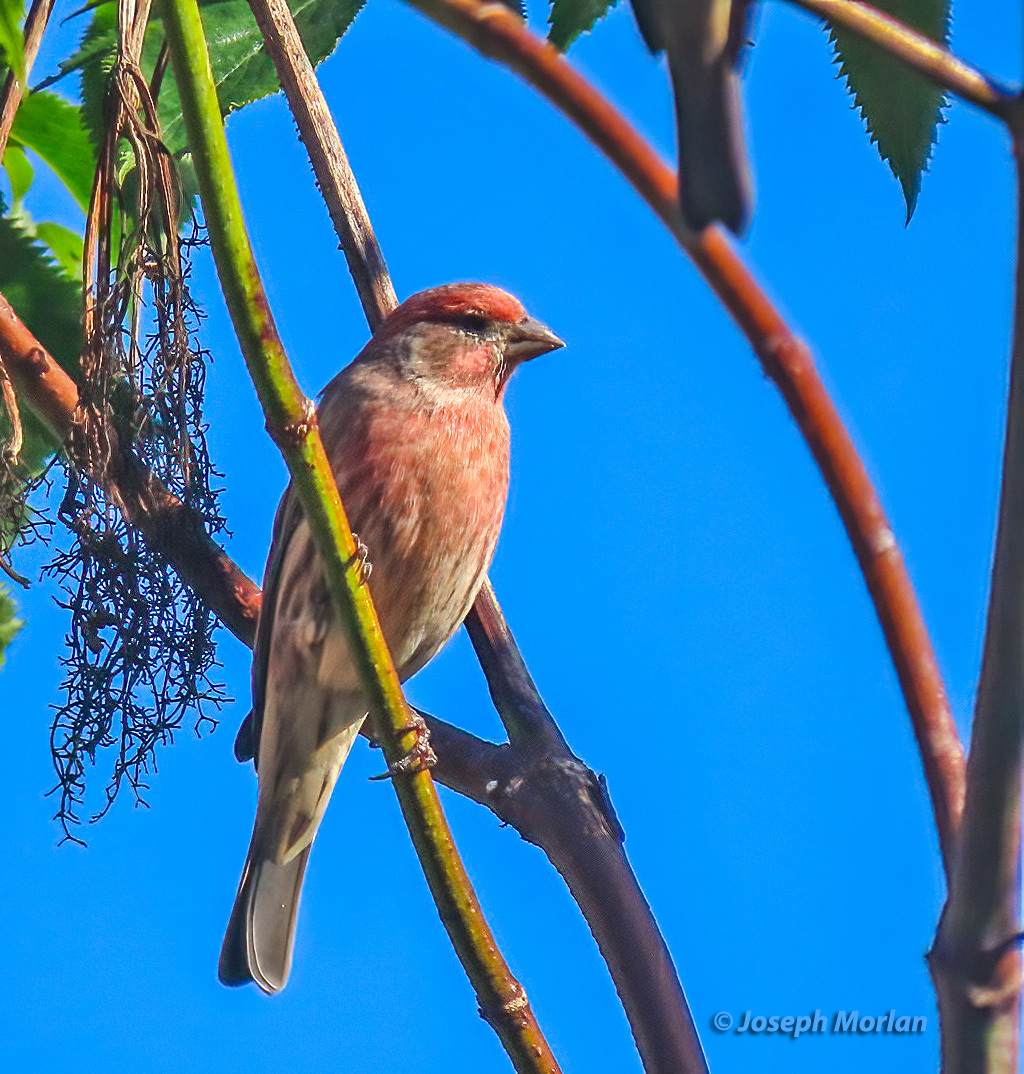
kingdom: Animalia
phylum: Chordata
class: Aves
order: Passeriformes
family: Fringillidae
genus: Haemorhous
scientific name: Haemorhous mexicanus
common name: House finch
